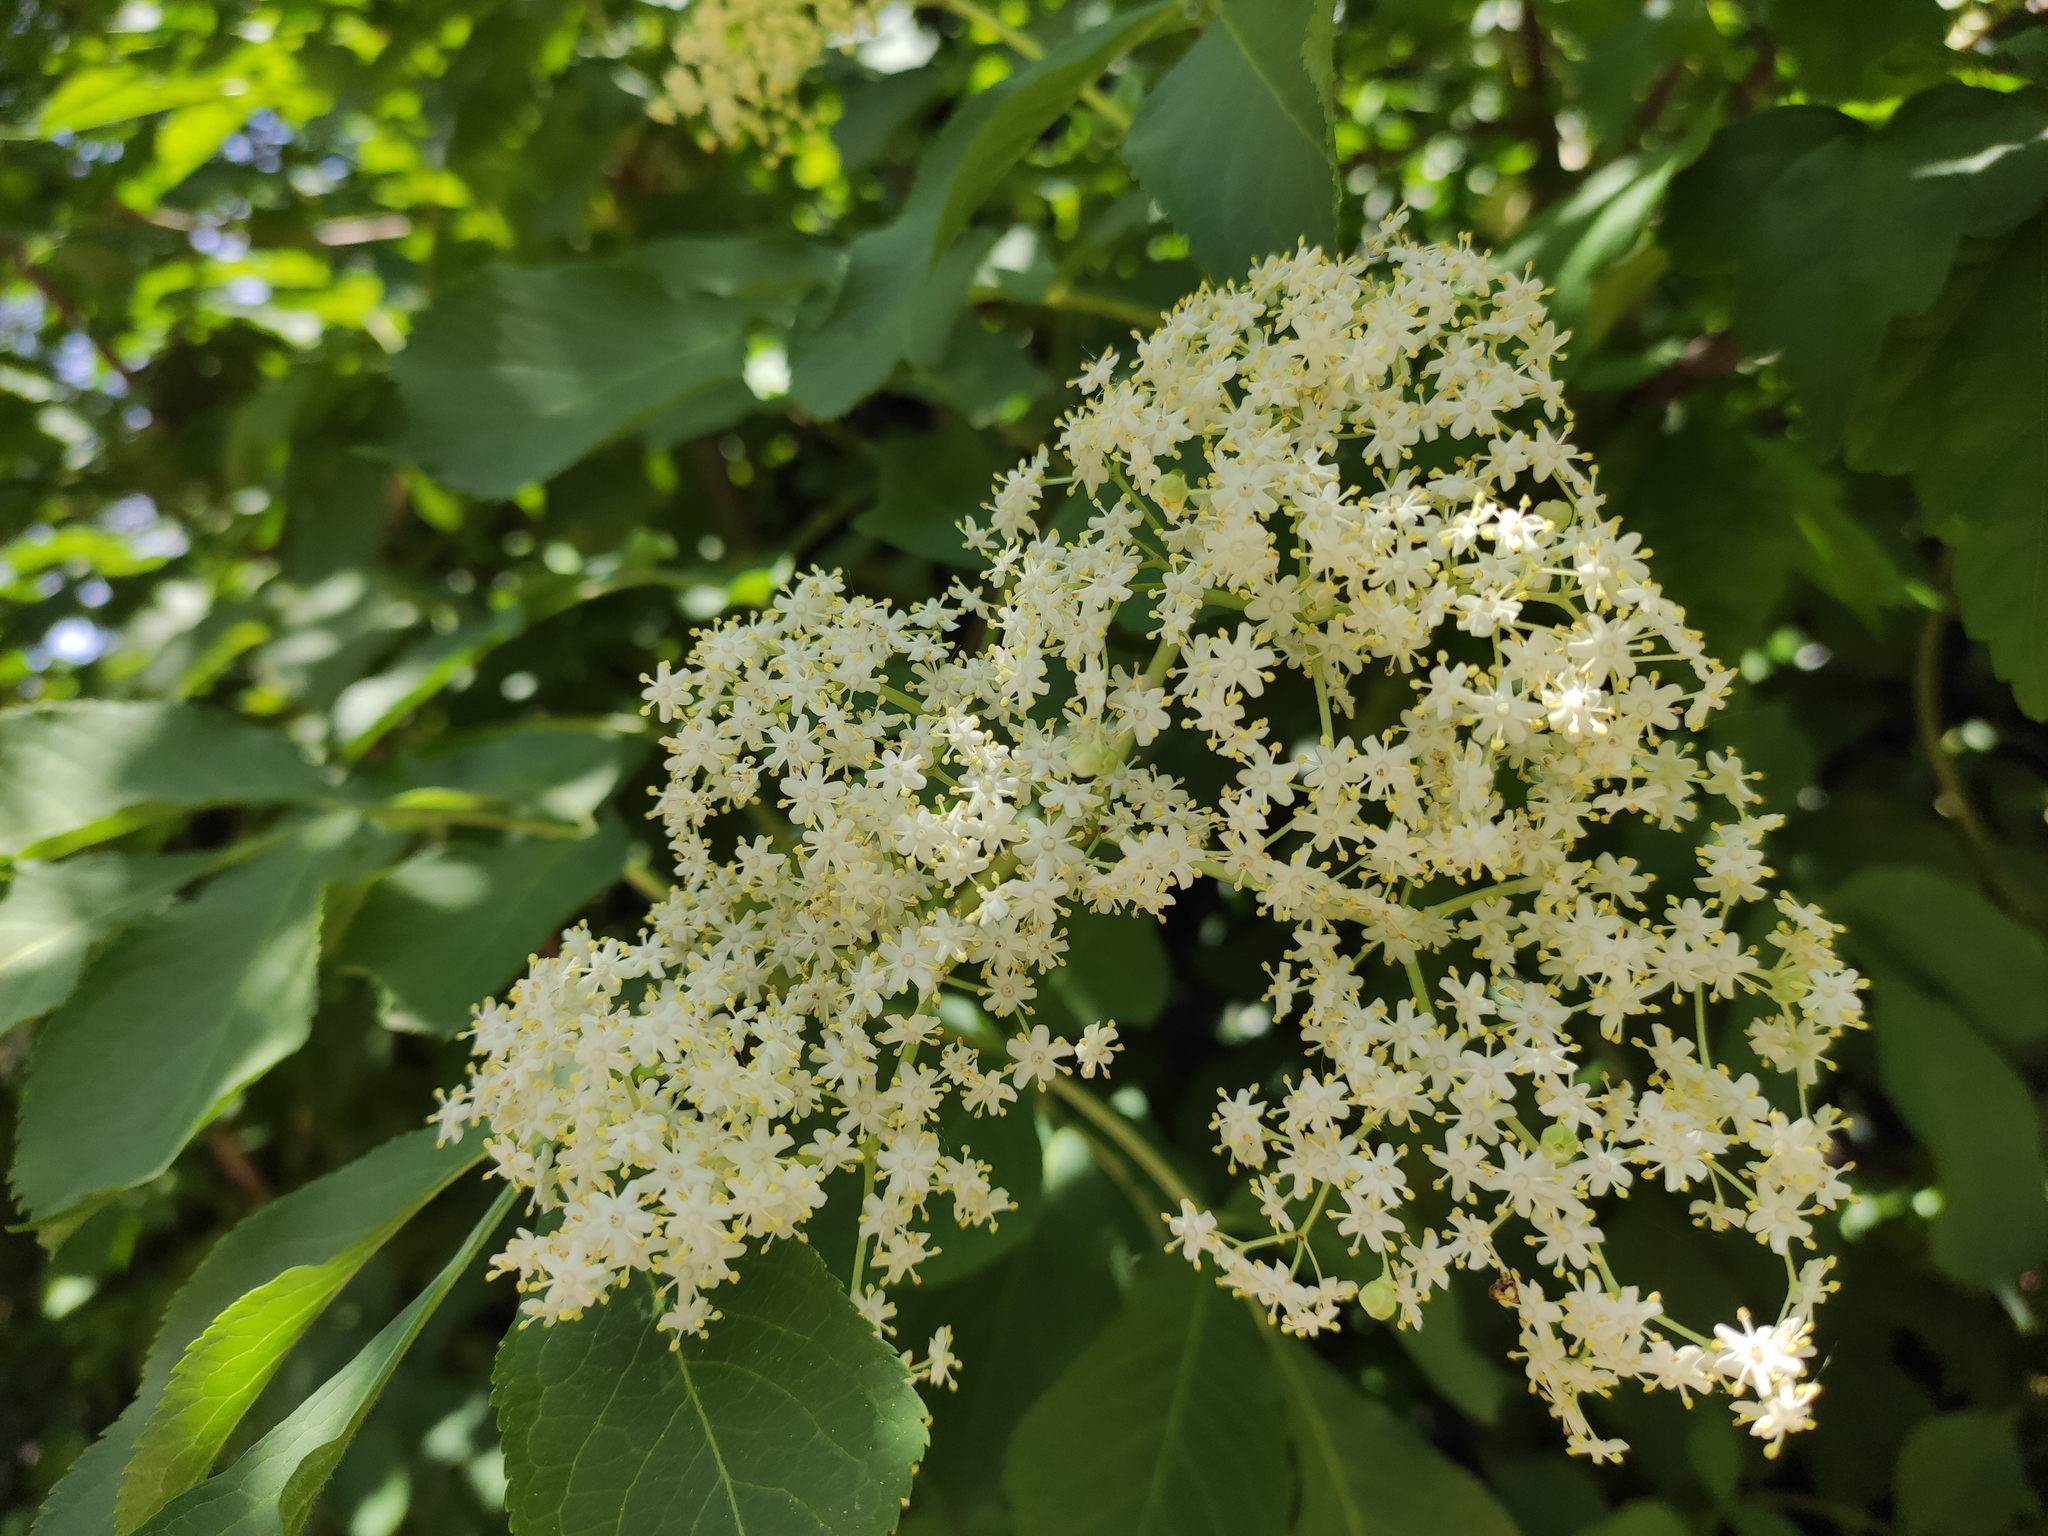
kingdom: Plantae
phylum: Tracheophyta
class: Magnoliopsida
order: Dipsacales
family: Viburnaceae
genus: Sambucus
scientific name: Sambucus nigra
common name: Elder
